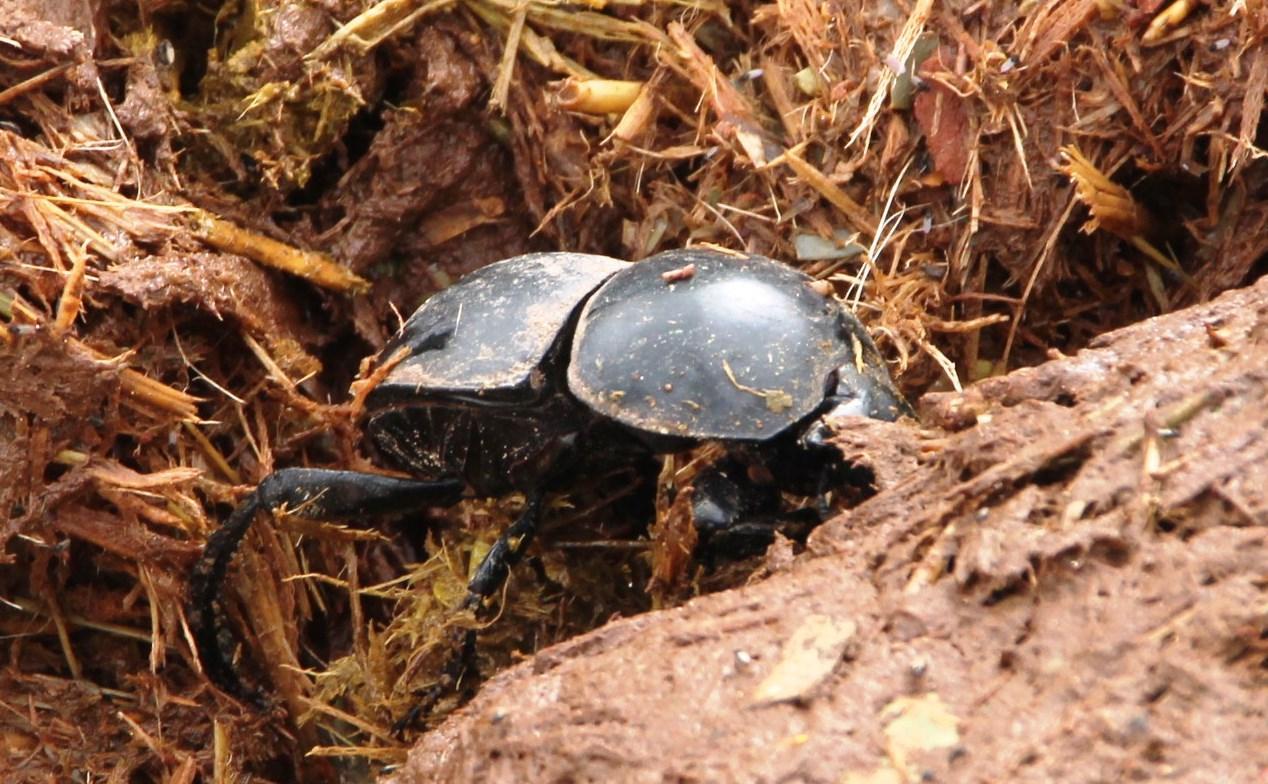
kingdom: Animalia
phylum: Arthropoda
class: Insecta
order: Coleoptera
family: Scarabaeidae
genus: Circellium
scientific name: Circellium bacchus
